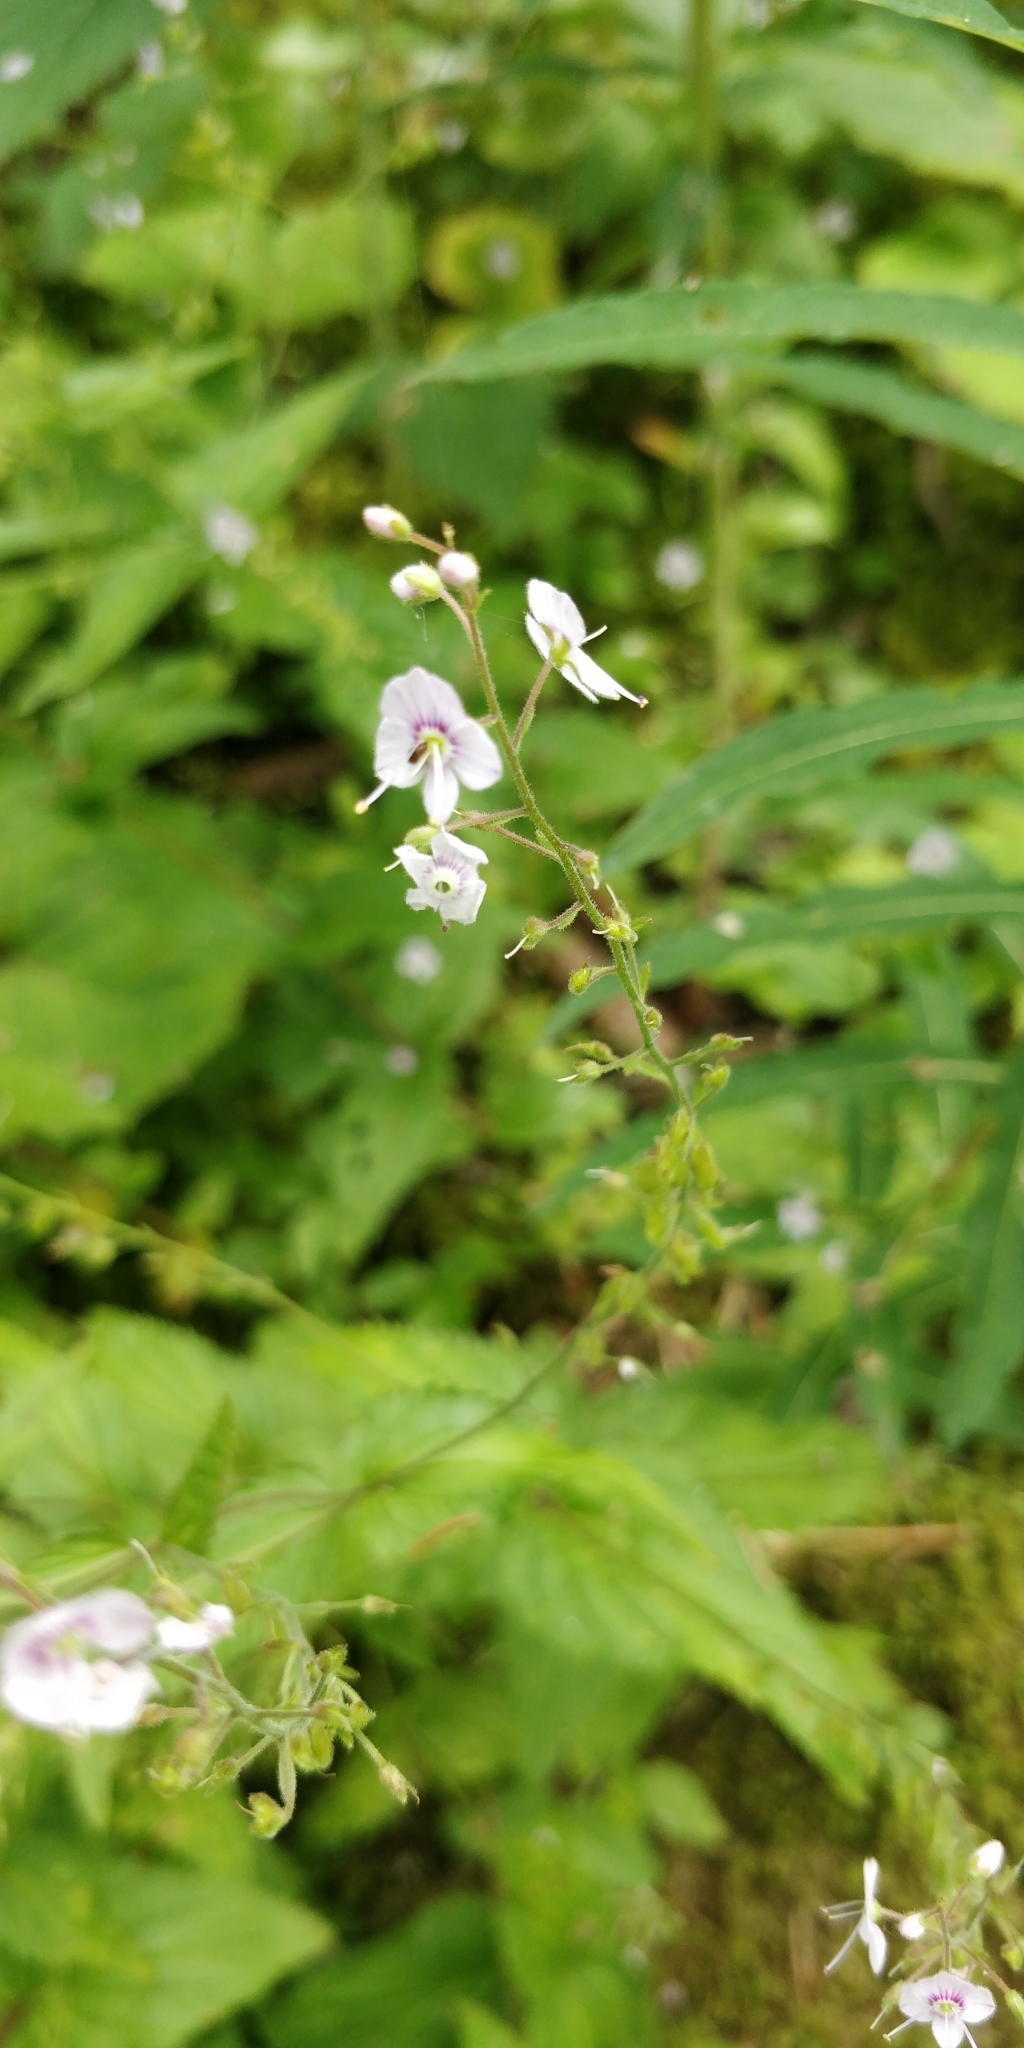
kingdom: Plantae
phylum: Tracheophyta
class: Magnoliopsida
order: Lamiales
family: Plantaginaceae
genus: Veronica
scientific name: Veronica urticifolia
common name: Nettle-leaf speedwell
